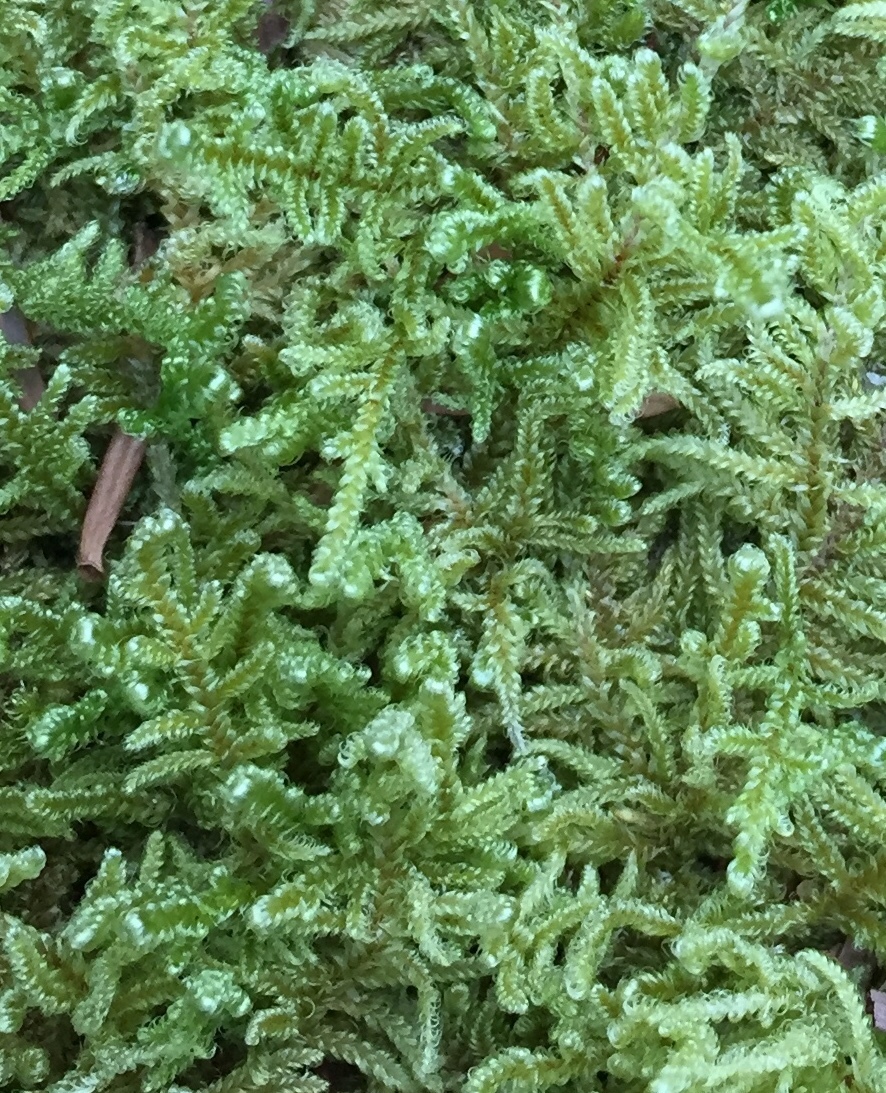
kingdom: Plantae
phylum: Bryophyta
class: Bryopsida
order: Hypnales
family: Callicladiaceae
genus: Callicladium
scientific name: Callicladium imponens
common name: Brocade moss
